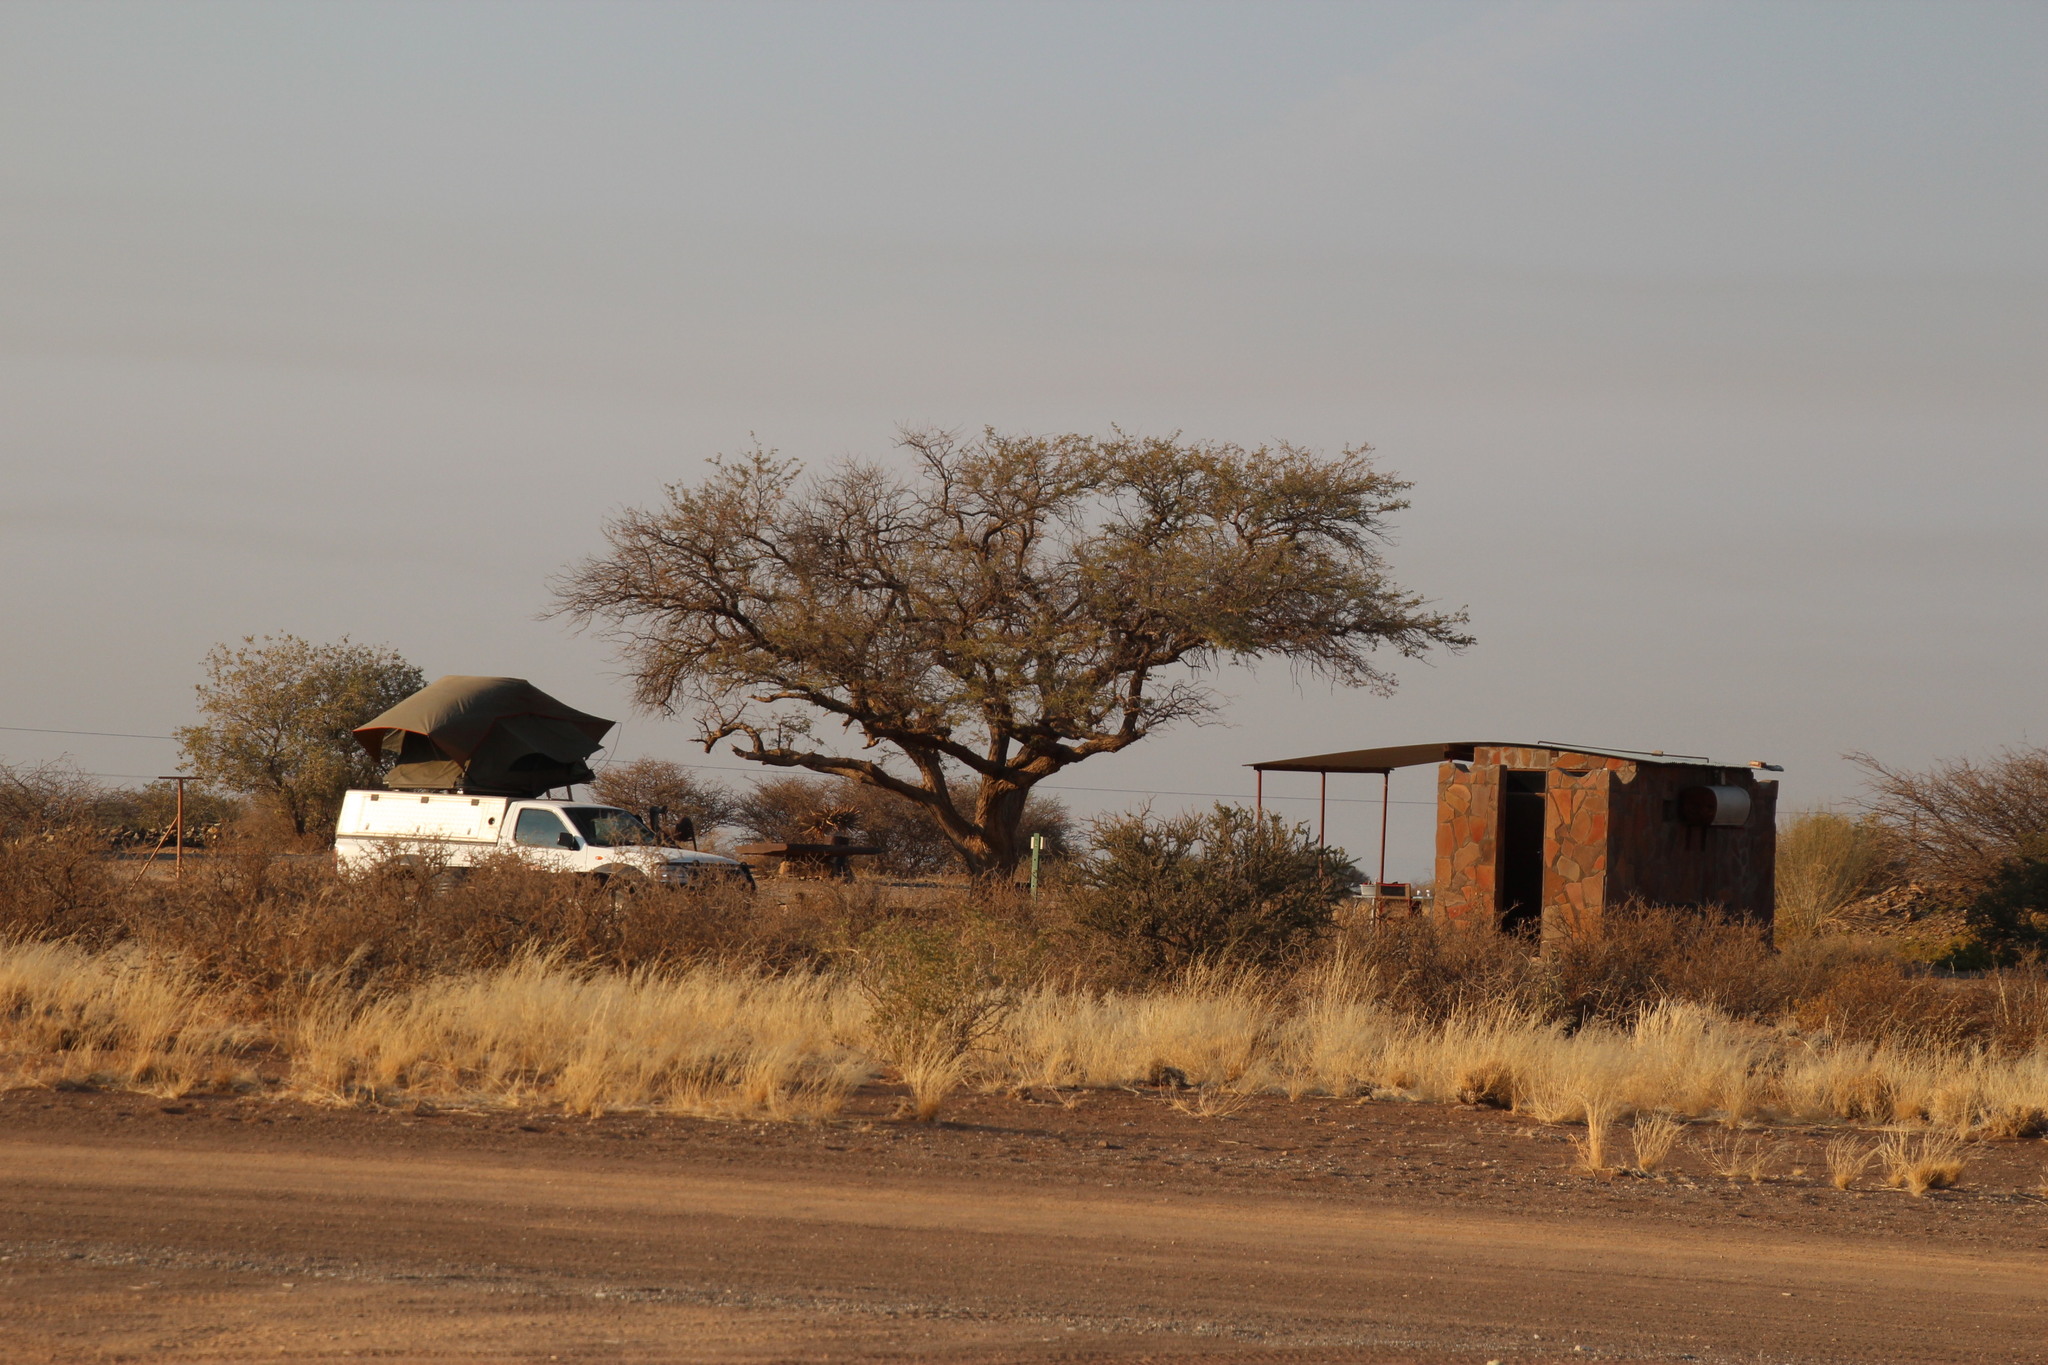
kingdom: Plantae
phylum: Tracheophyta
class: Magnoliopsida
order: Fabales
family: Fabaceae
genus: Vachellia
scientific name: Vachellia erioloba
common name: Camel thorn
